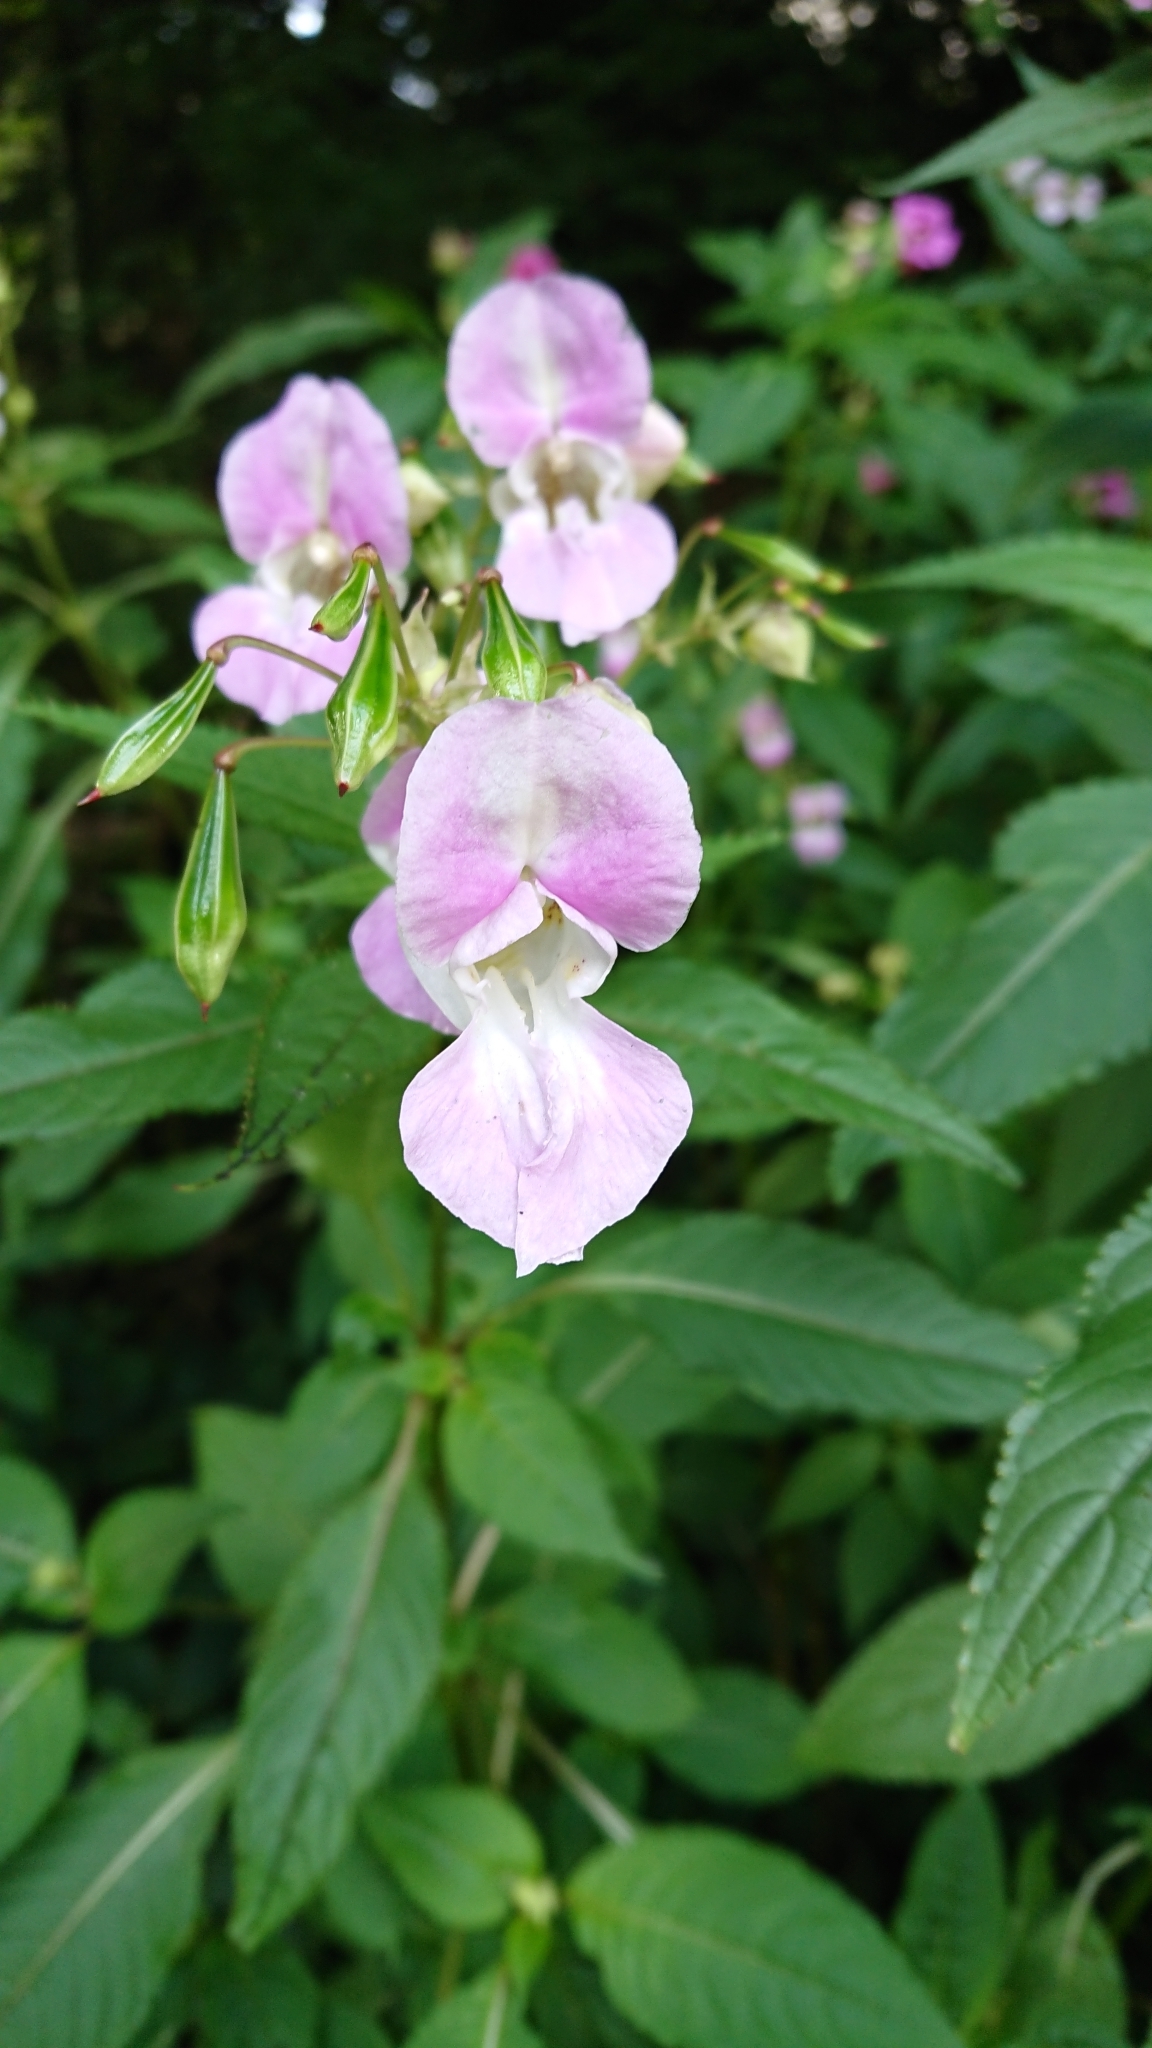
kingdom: Plantae
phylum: Tracheophyta
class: Magnoliopsida
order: Ericales
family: Balsaminaceae
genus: Impatiens
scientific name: Impatiens glandulifera
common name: Himalayan balsam
